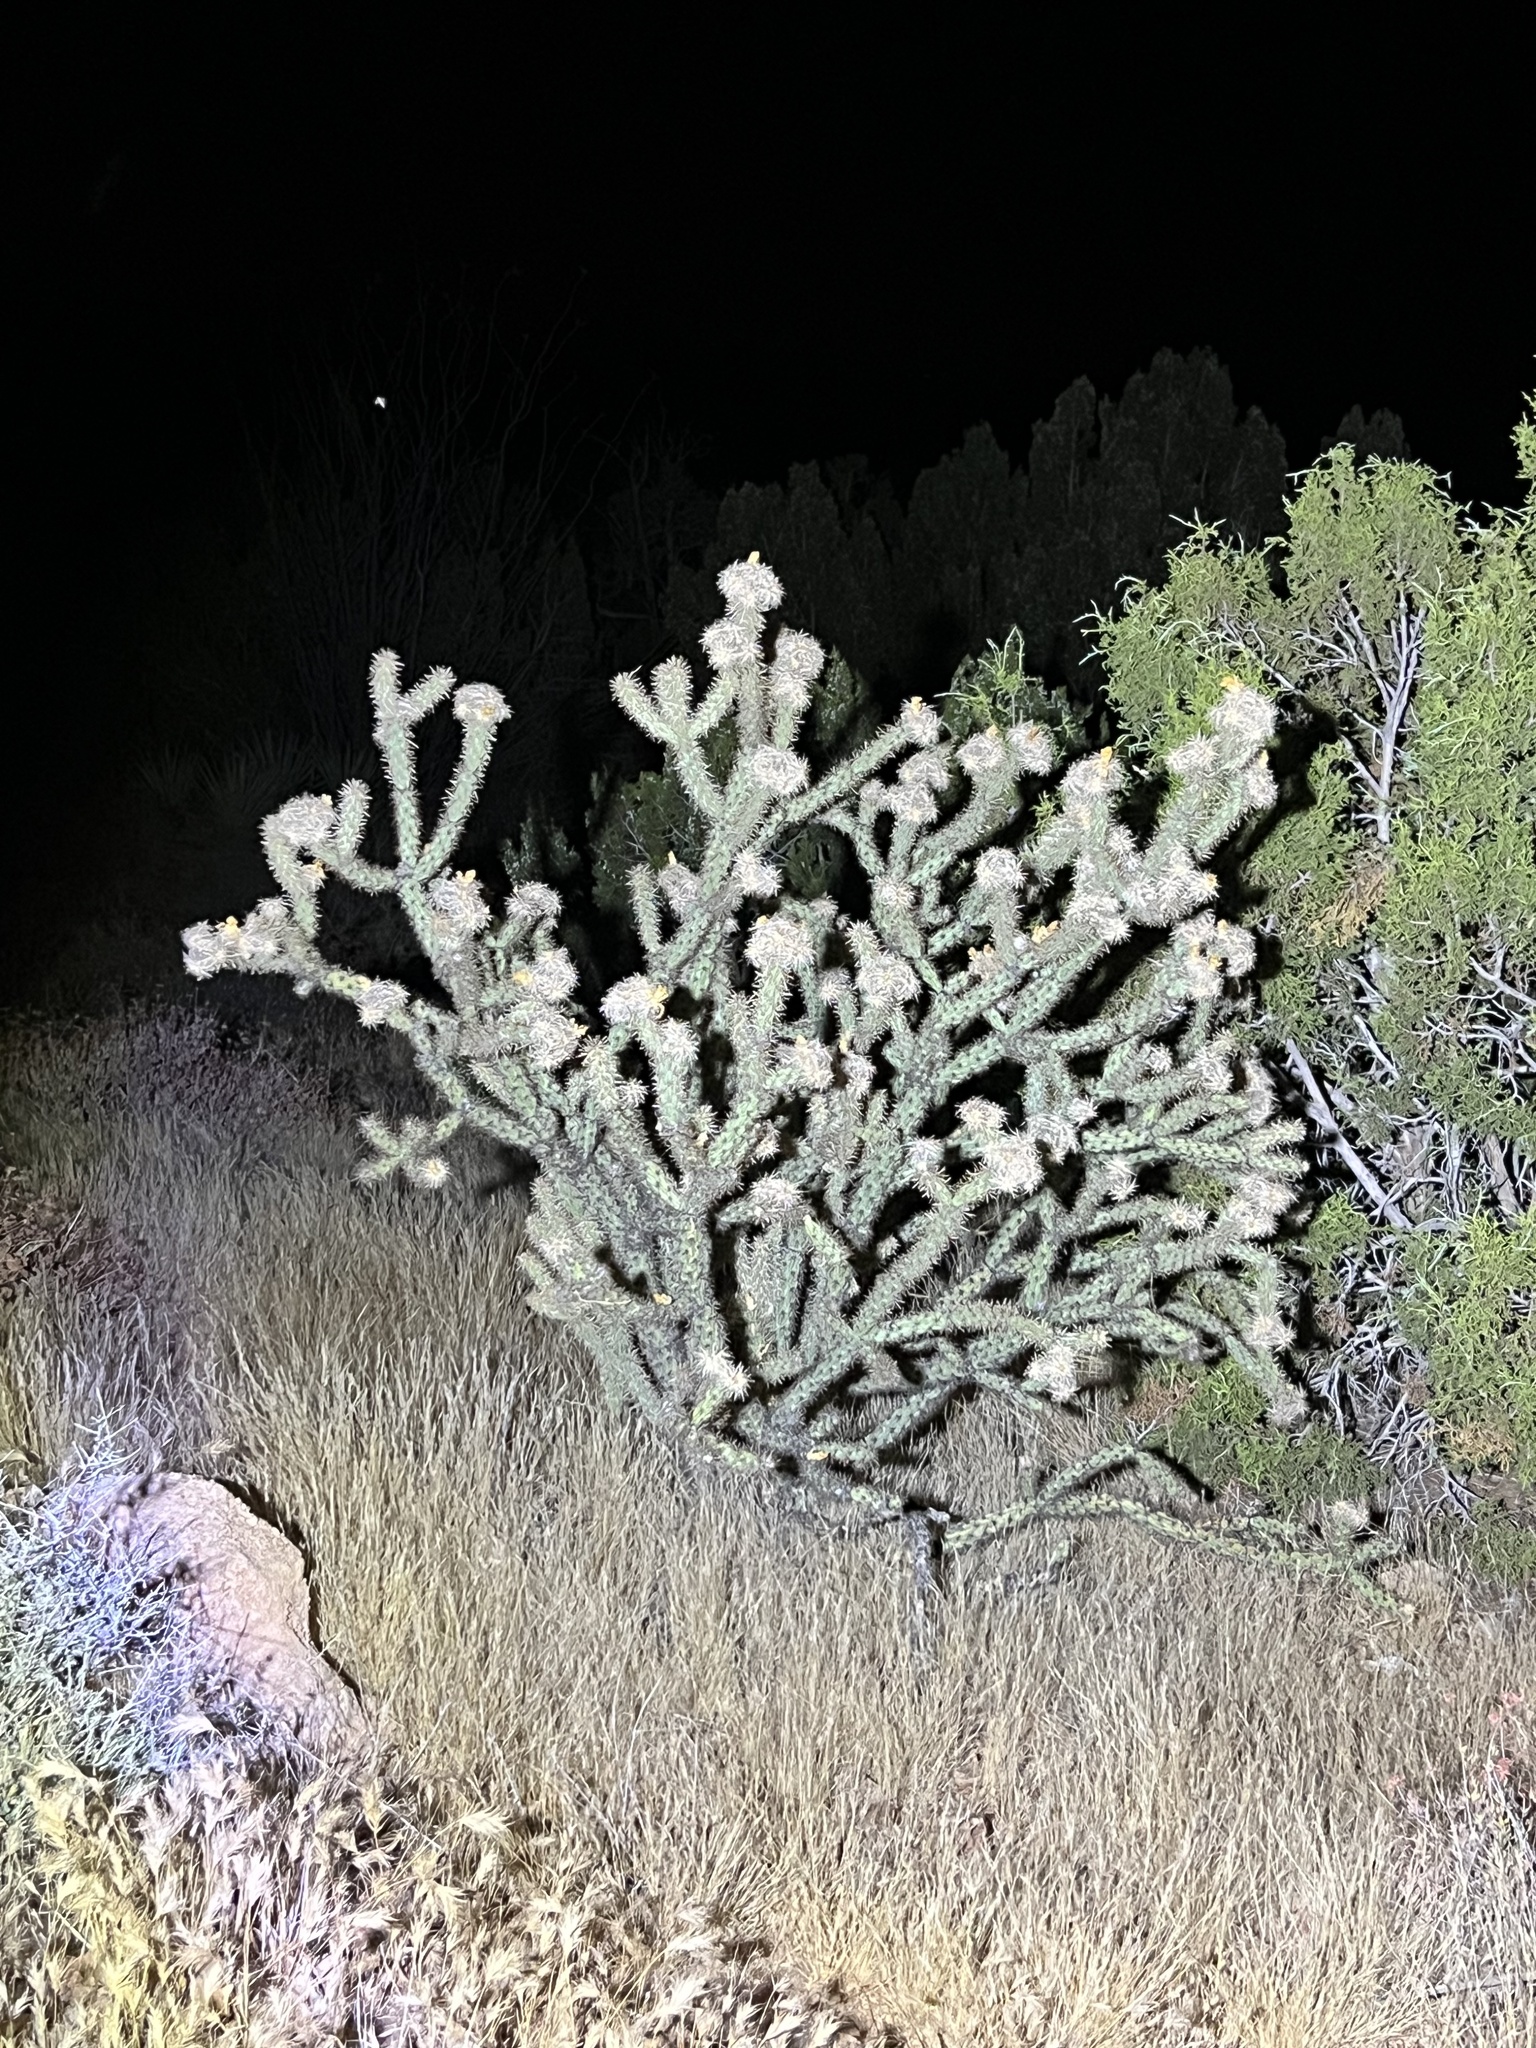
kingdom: Plantae
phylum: Tracheophyta
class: Magnoliopsida
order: Caryophyllales
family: Cactaceae
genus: Cylindropuntia
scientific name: Cylindropuntia acanthocarpa
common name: Buckhorn cholla
